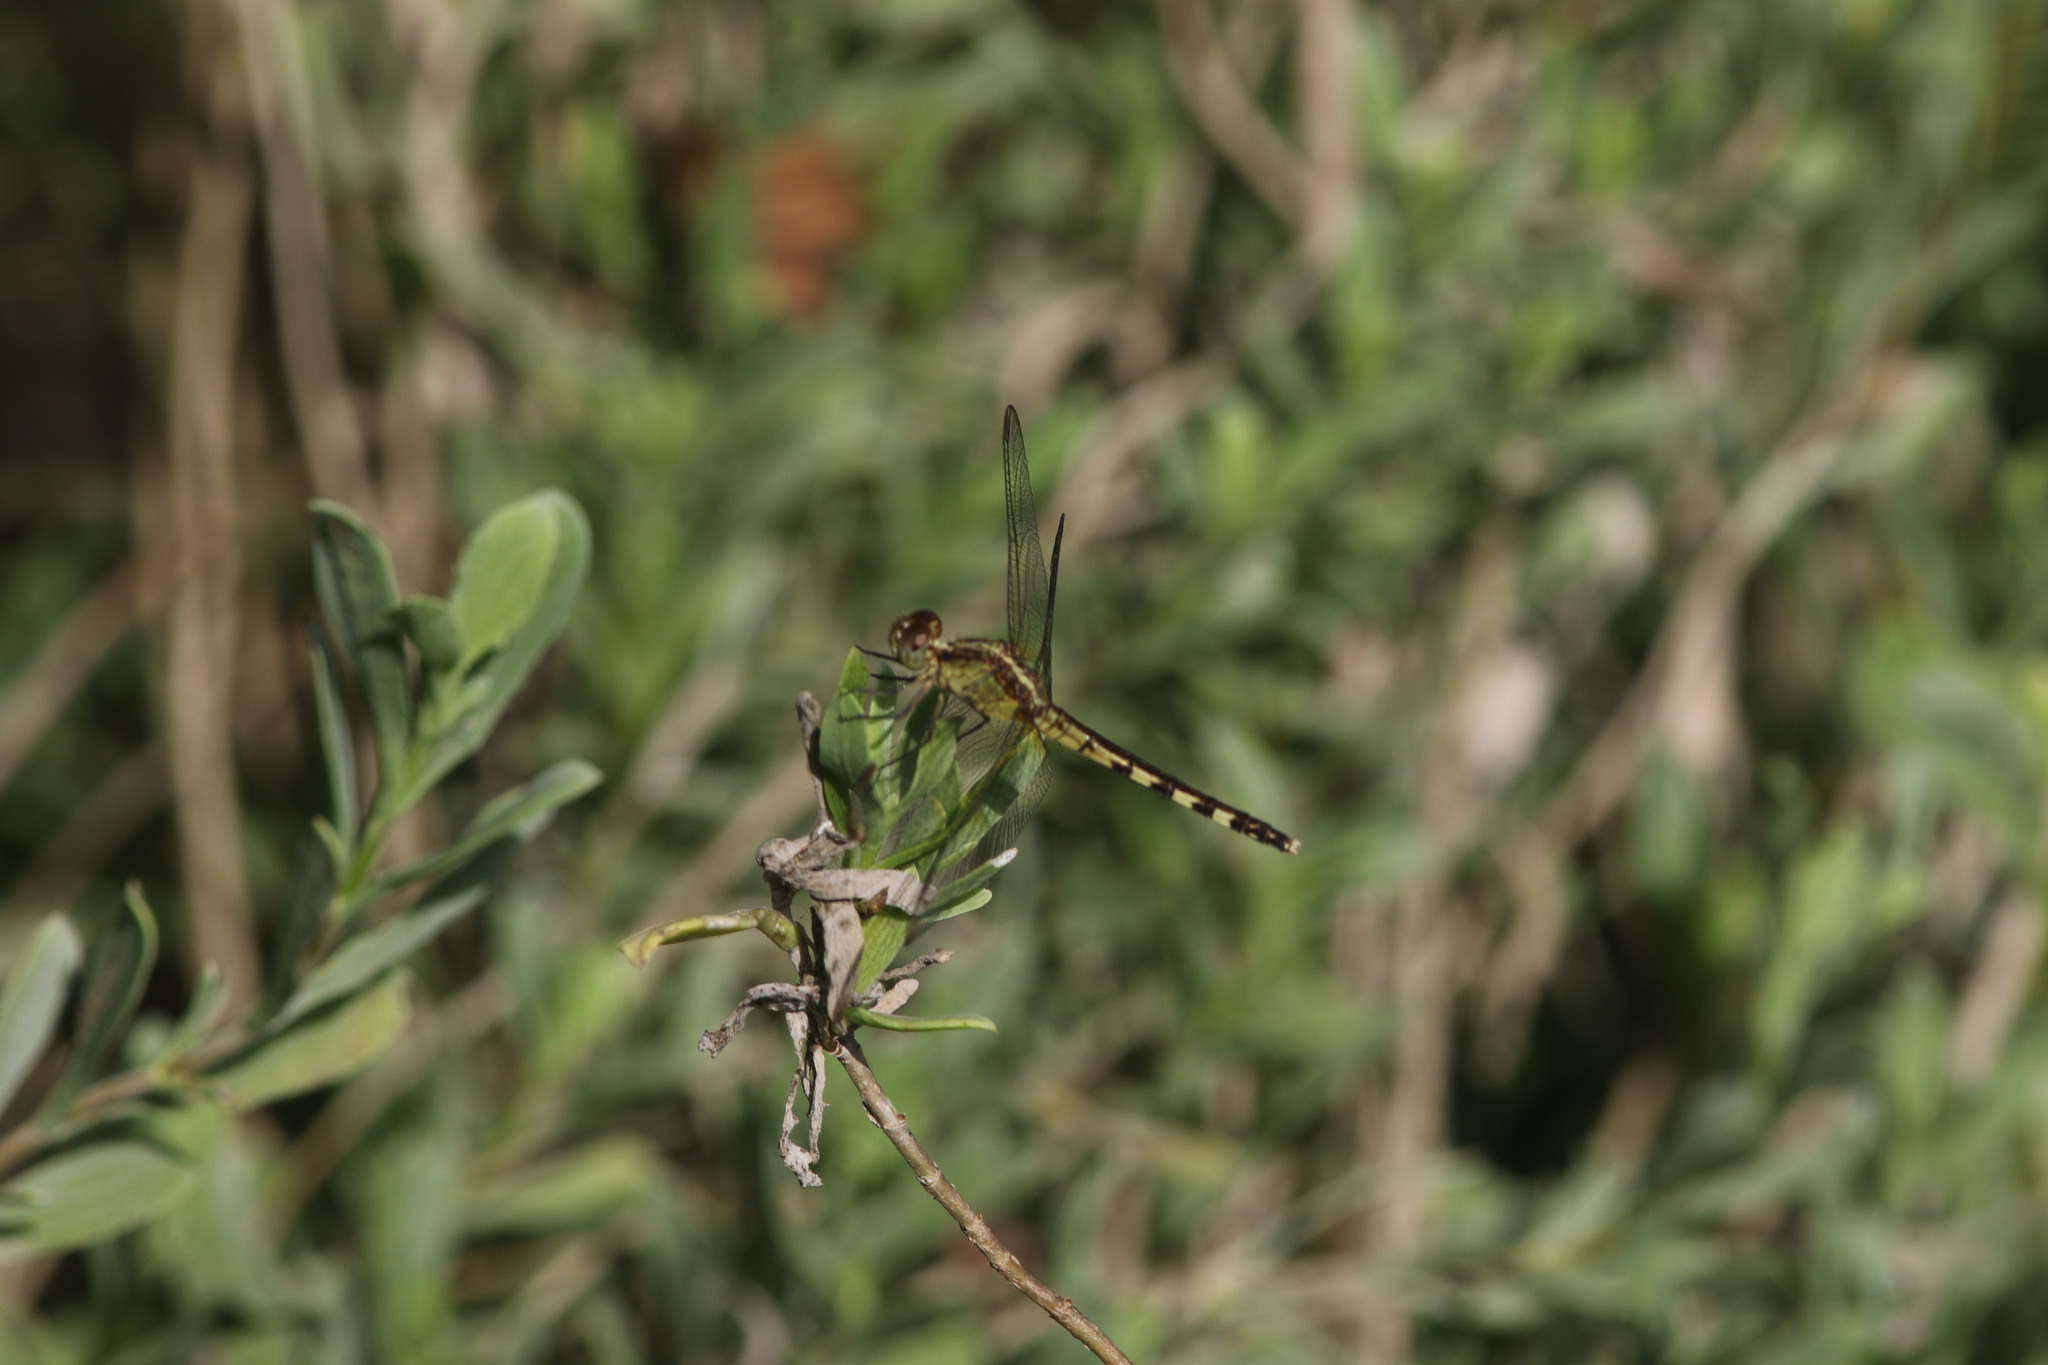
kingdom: Animalia
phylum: Arthropoda
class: Insecta
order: Odonata
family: Libellulidae
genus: Erythrodiplax
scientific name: Erythrodiplax umbrata
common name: Band-winged dragonlet
